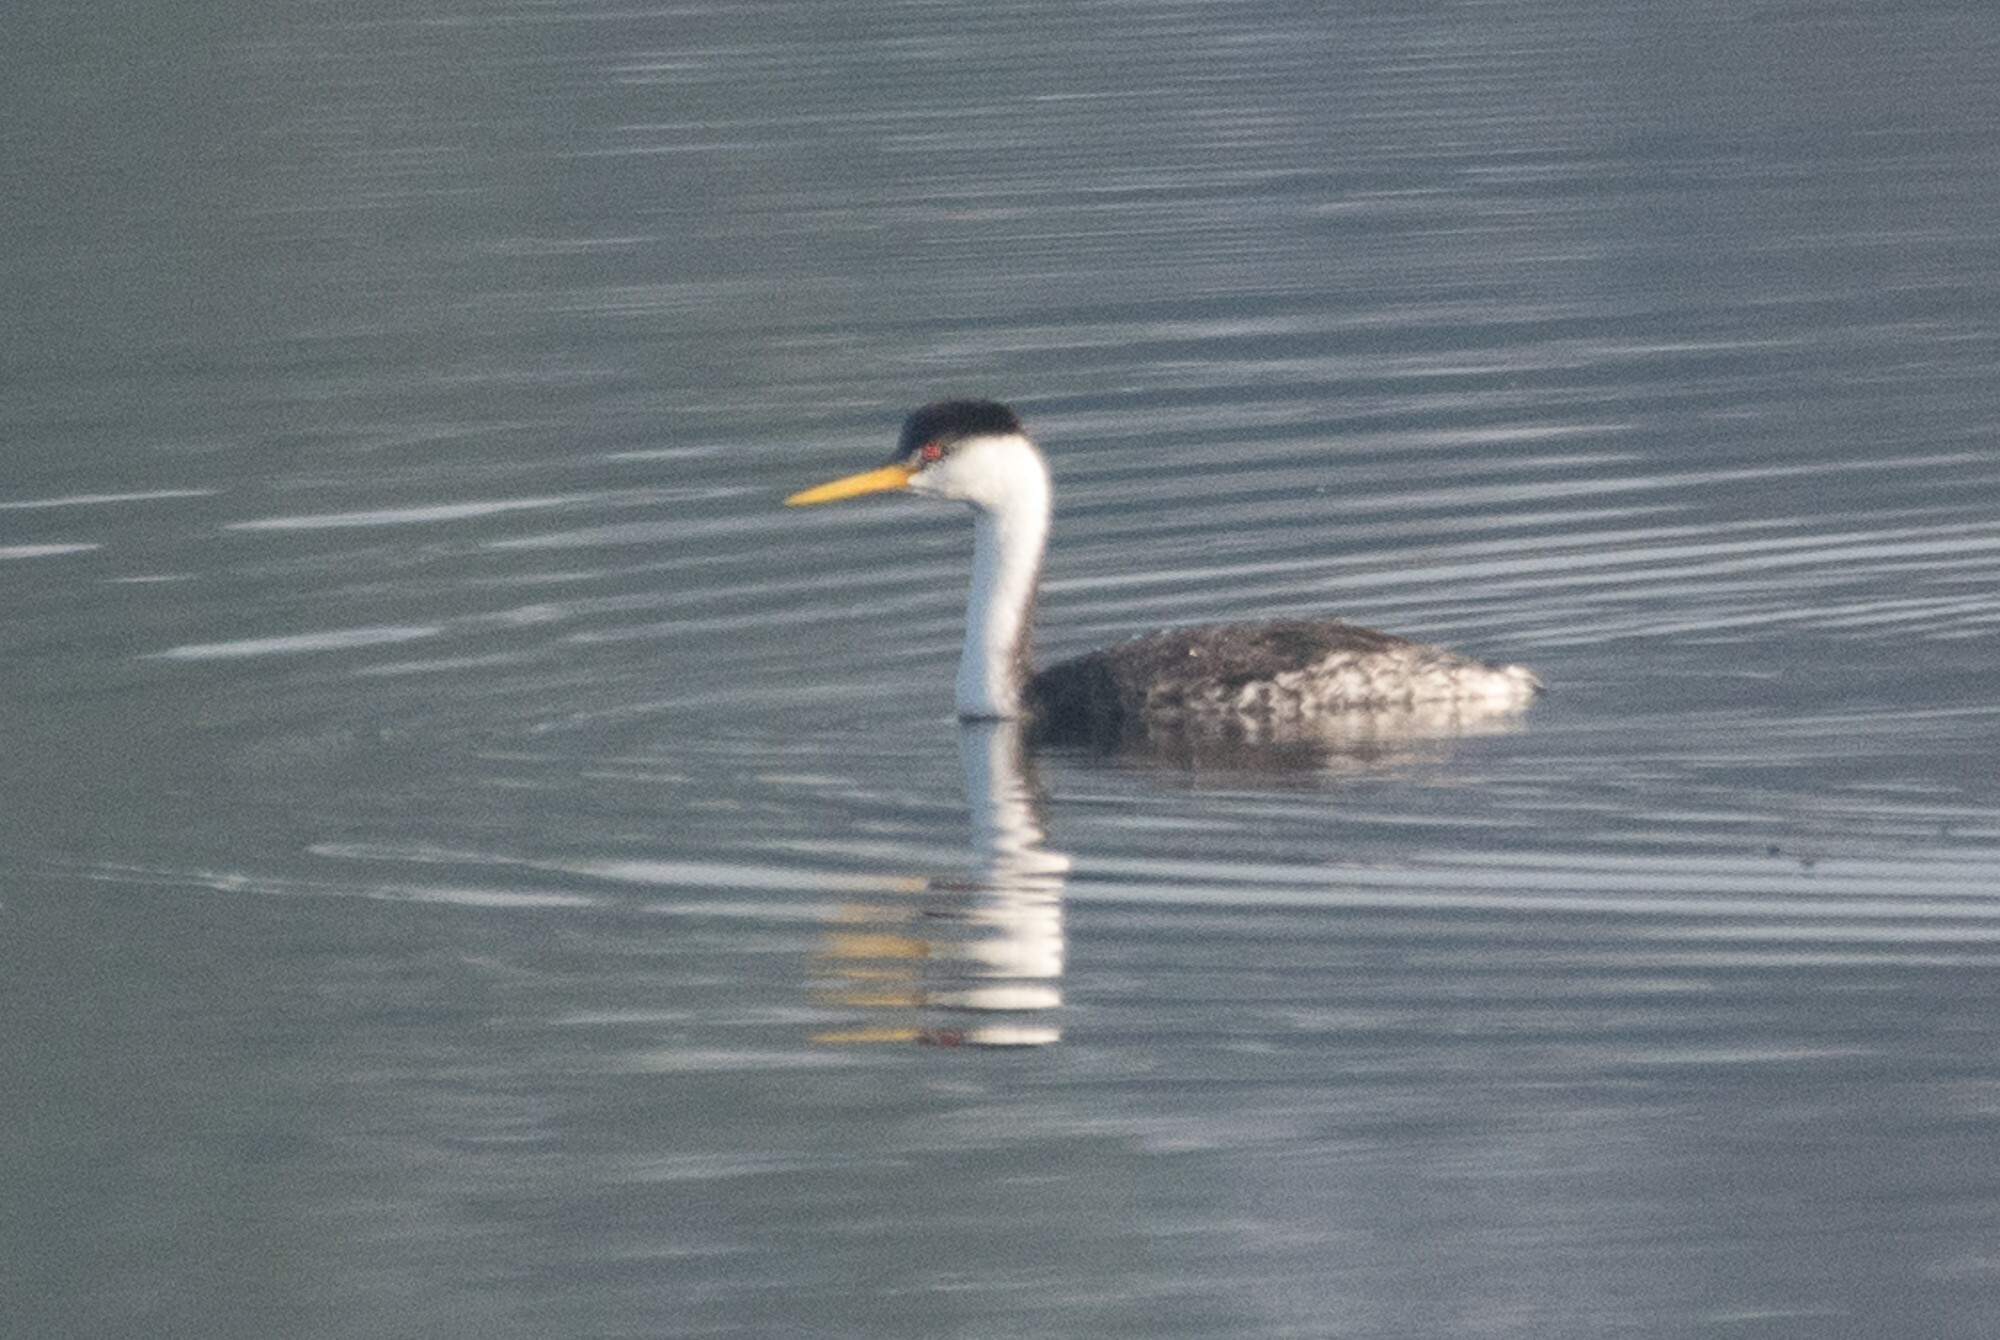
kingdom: Animalia
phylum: Chordata
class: Aves
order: Podicipediformes
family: Podicipedidae
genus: Aechmophorus
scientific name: Aechmophorus clarkii
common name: Clark's grebe
